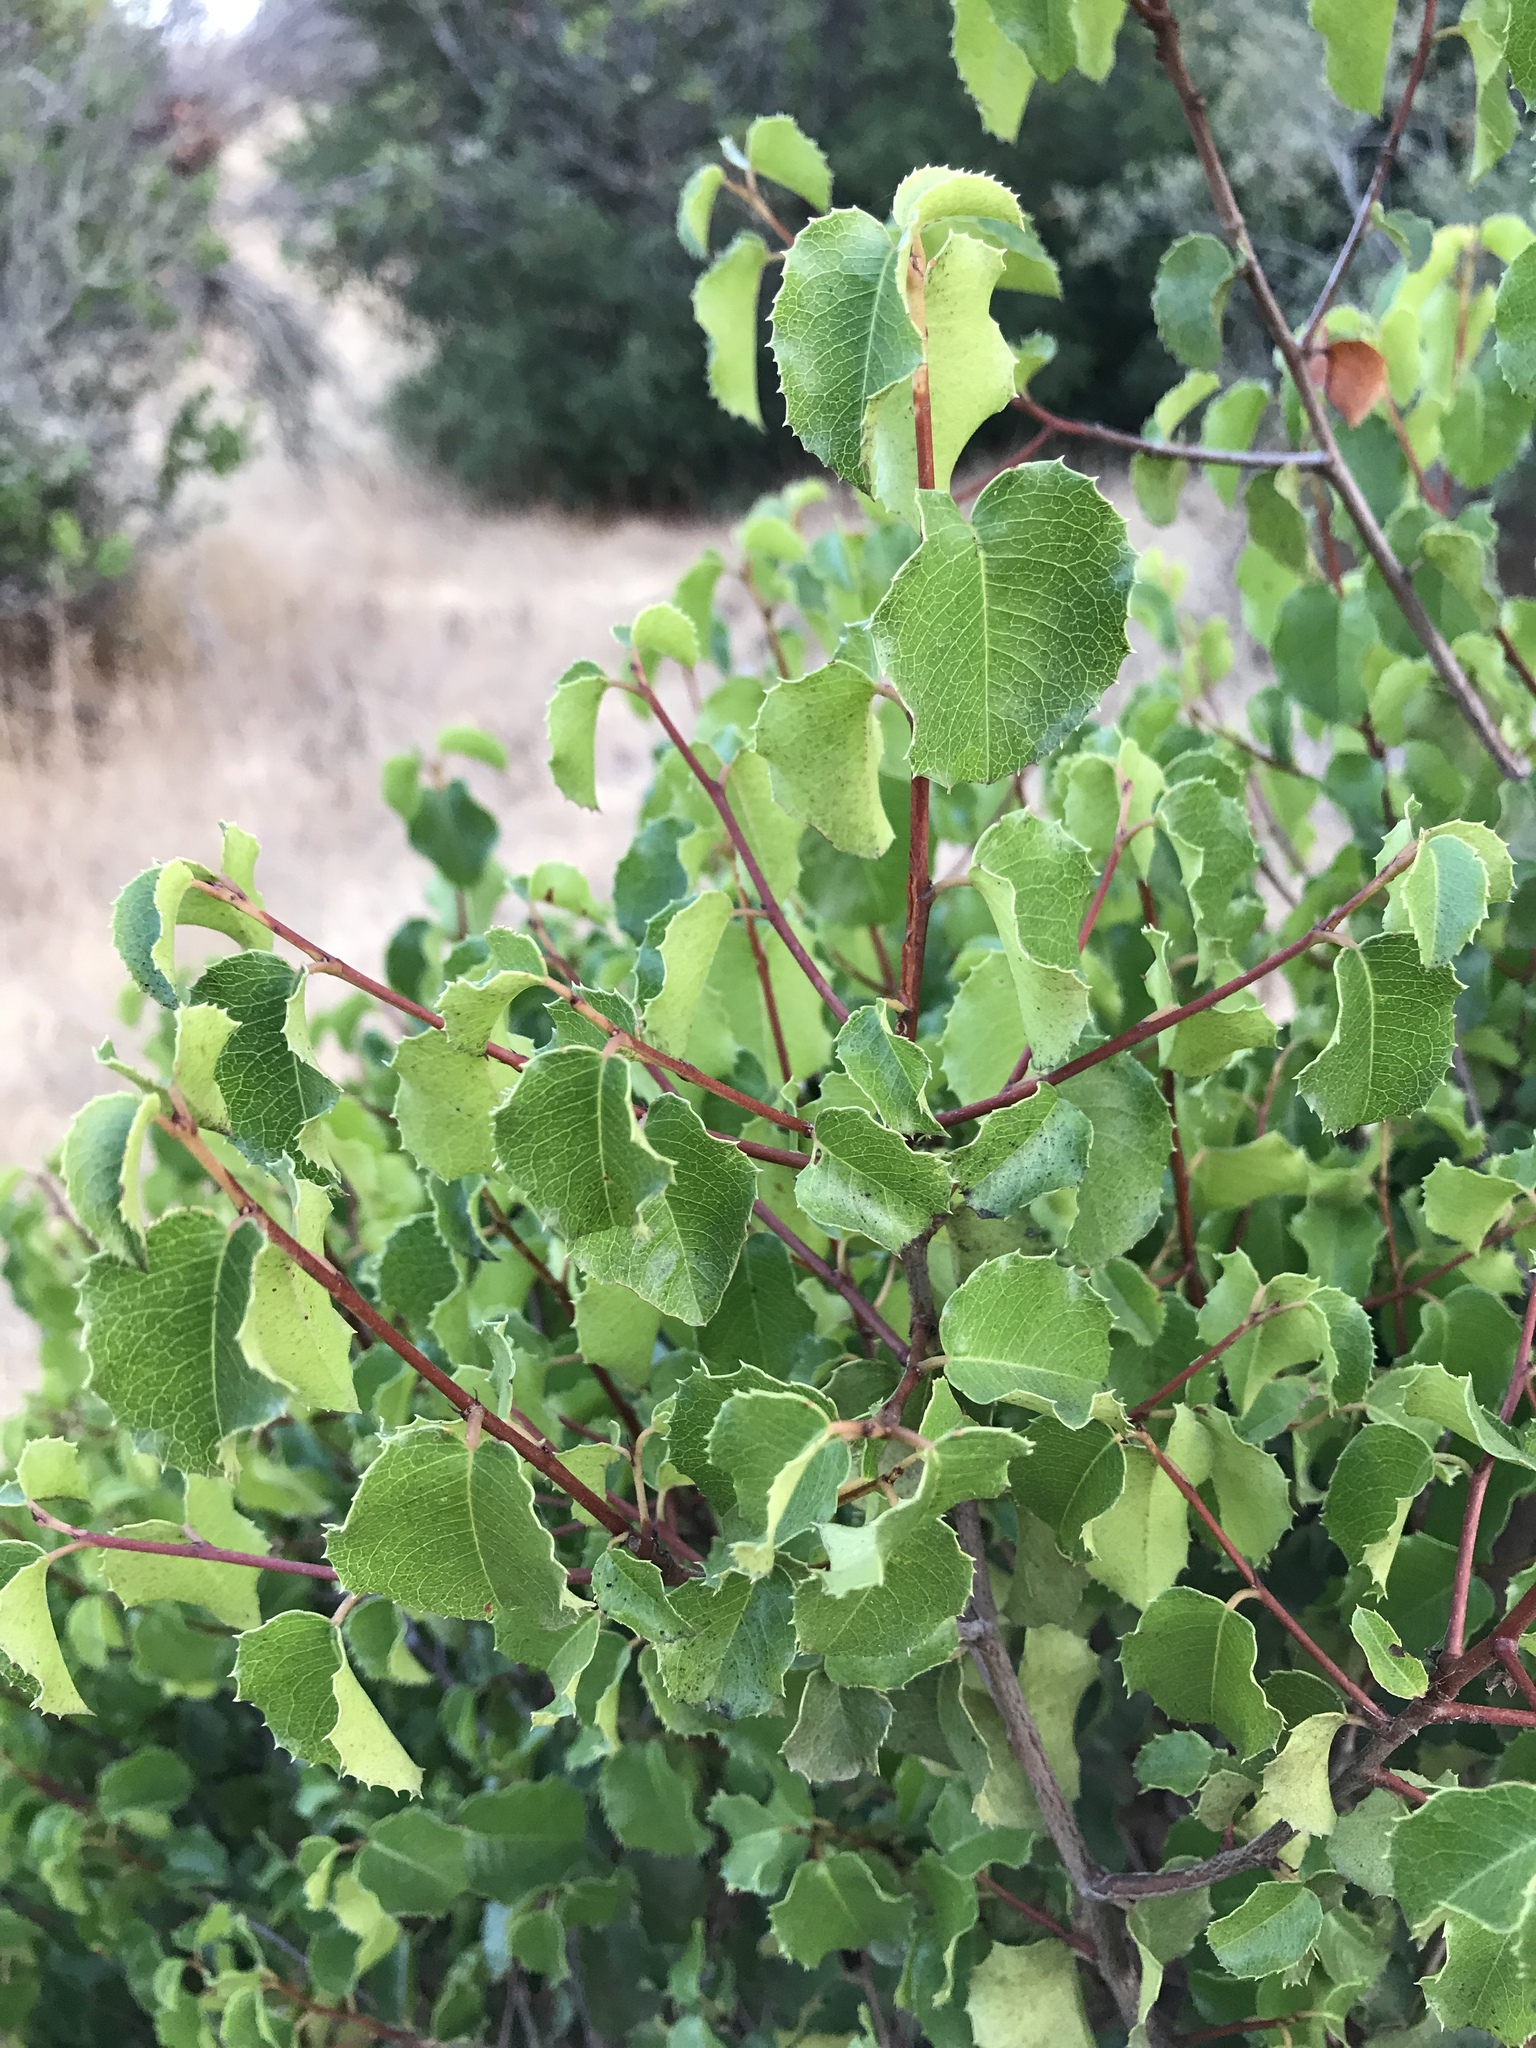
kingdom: Plantae
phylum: Tracheophyta
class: Magnoliopsida
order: Rosales
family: Rosaceae
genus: Prunus
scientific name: Prunus ilicifolia
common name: Hollyleaf cherry
